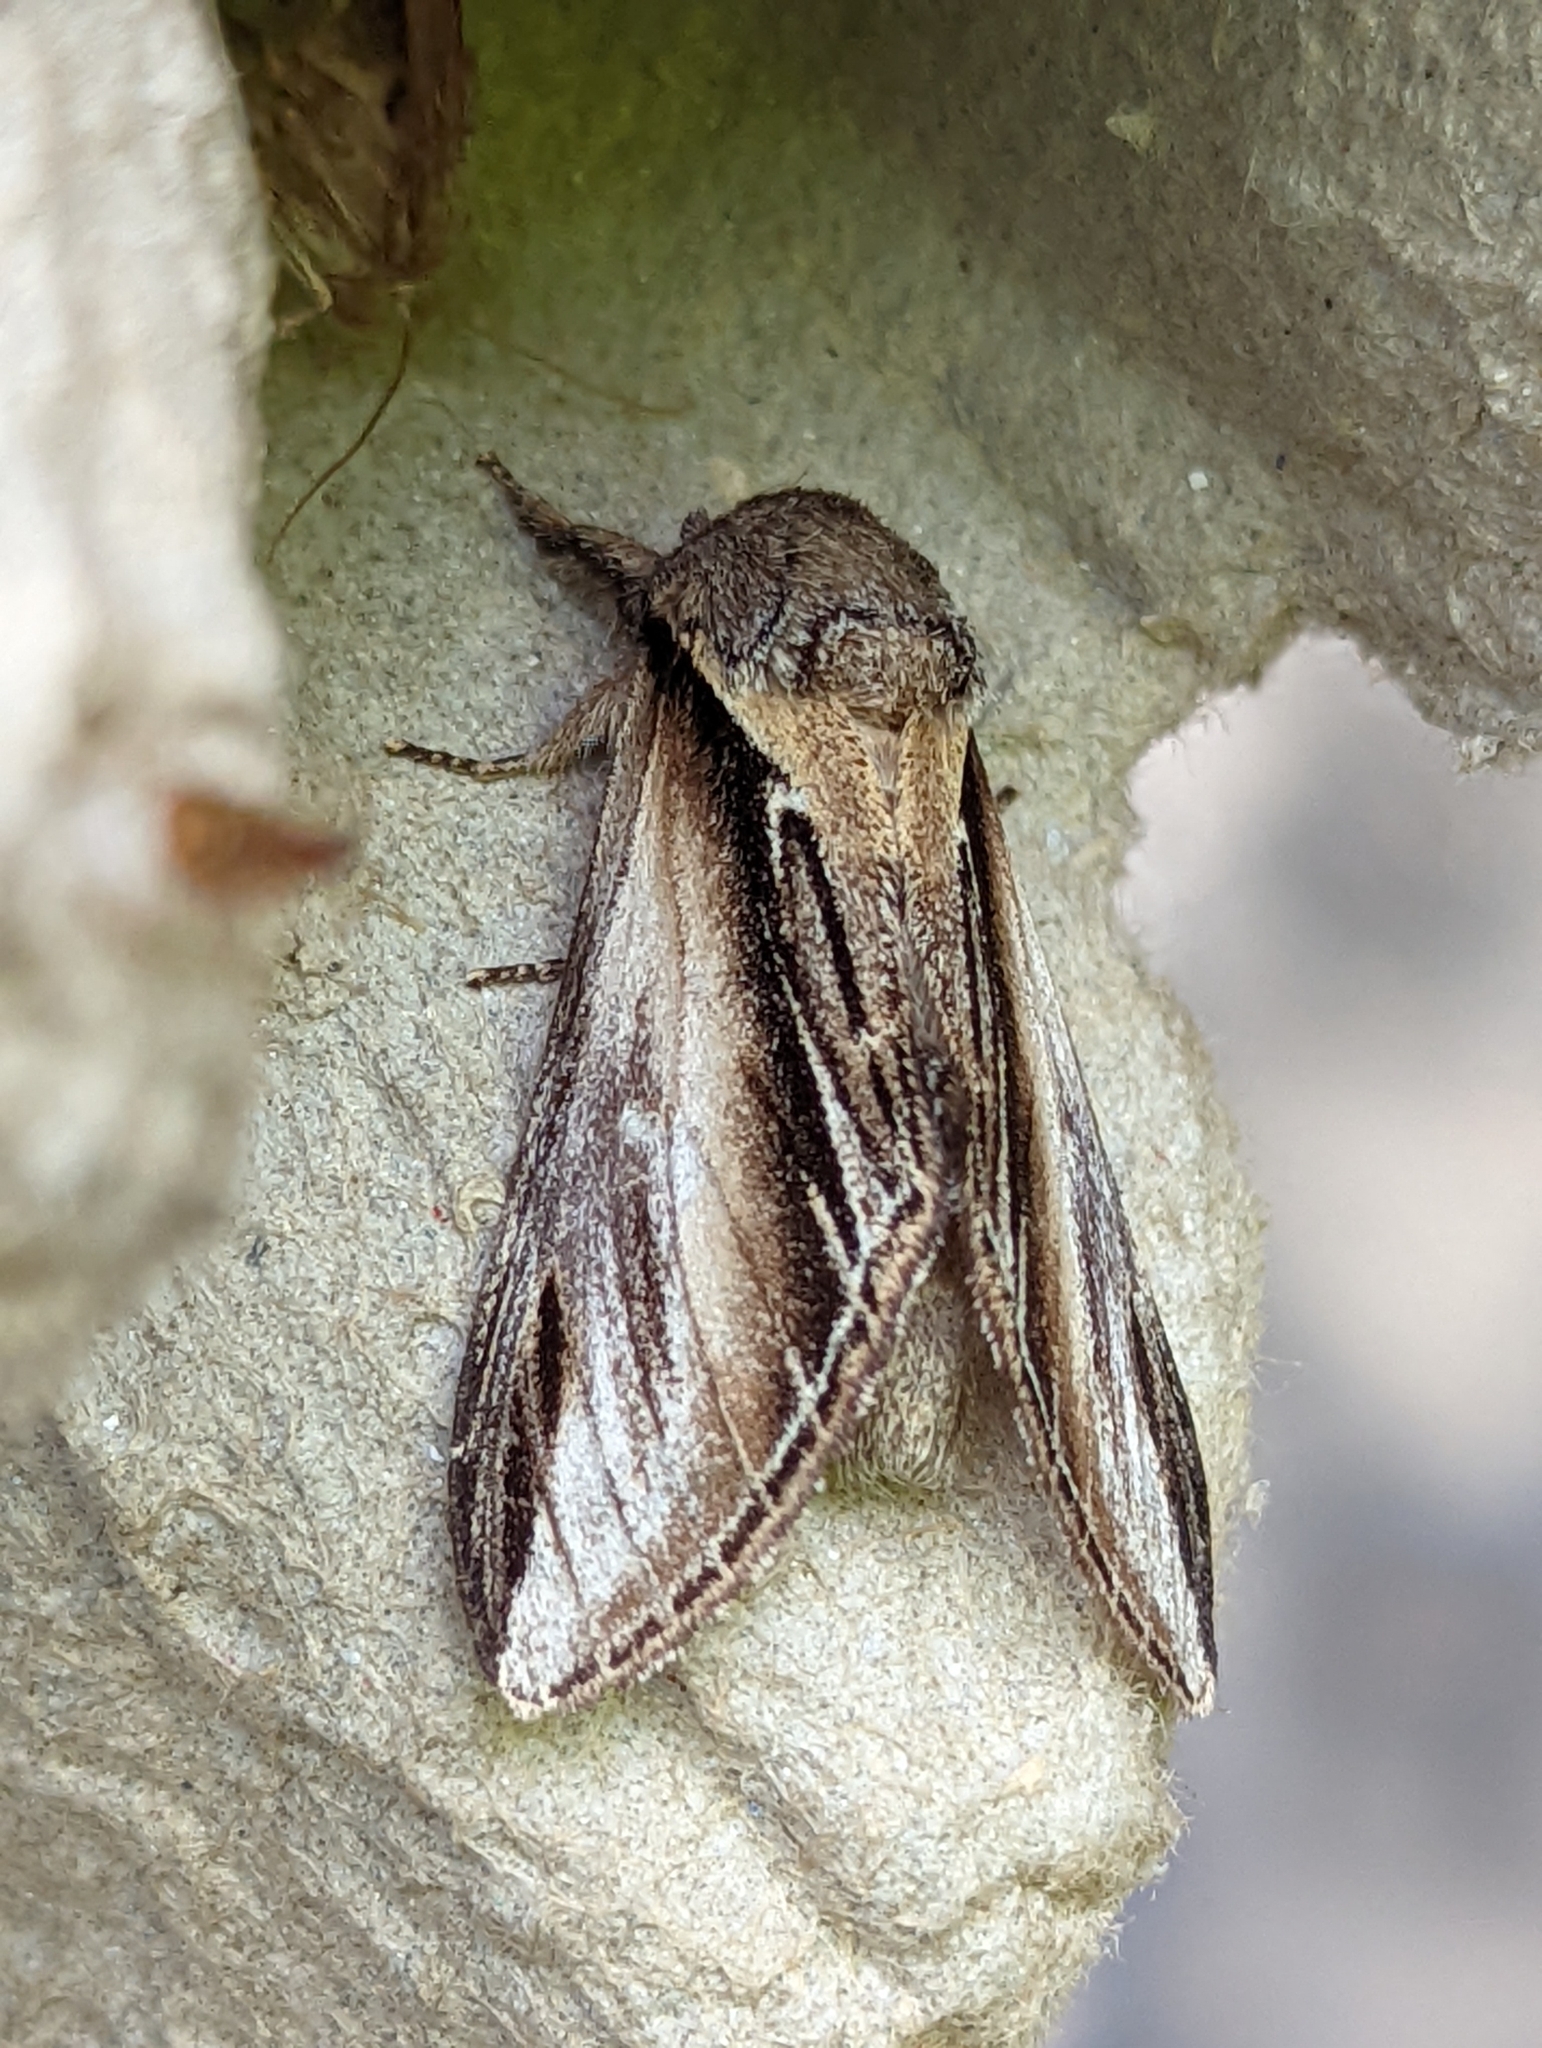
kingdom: Animalia
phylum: Arthropoda
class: Insecta
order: Lepidoptera
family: Notodontidae
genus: Pheosia
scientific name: Pheosia tremula
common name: Swallow prominent
